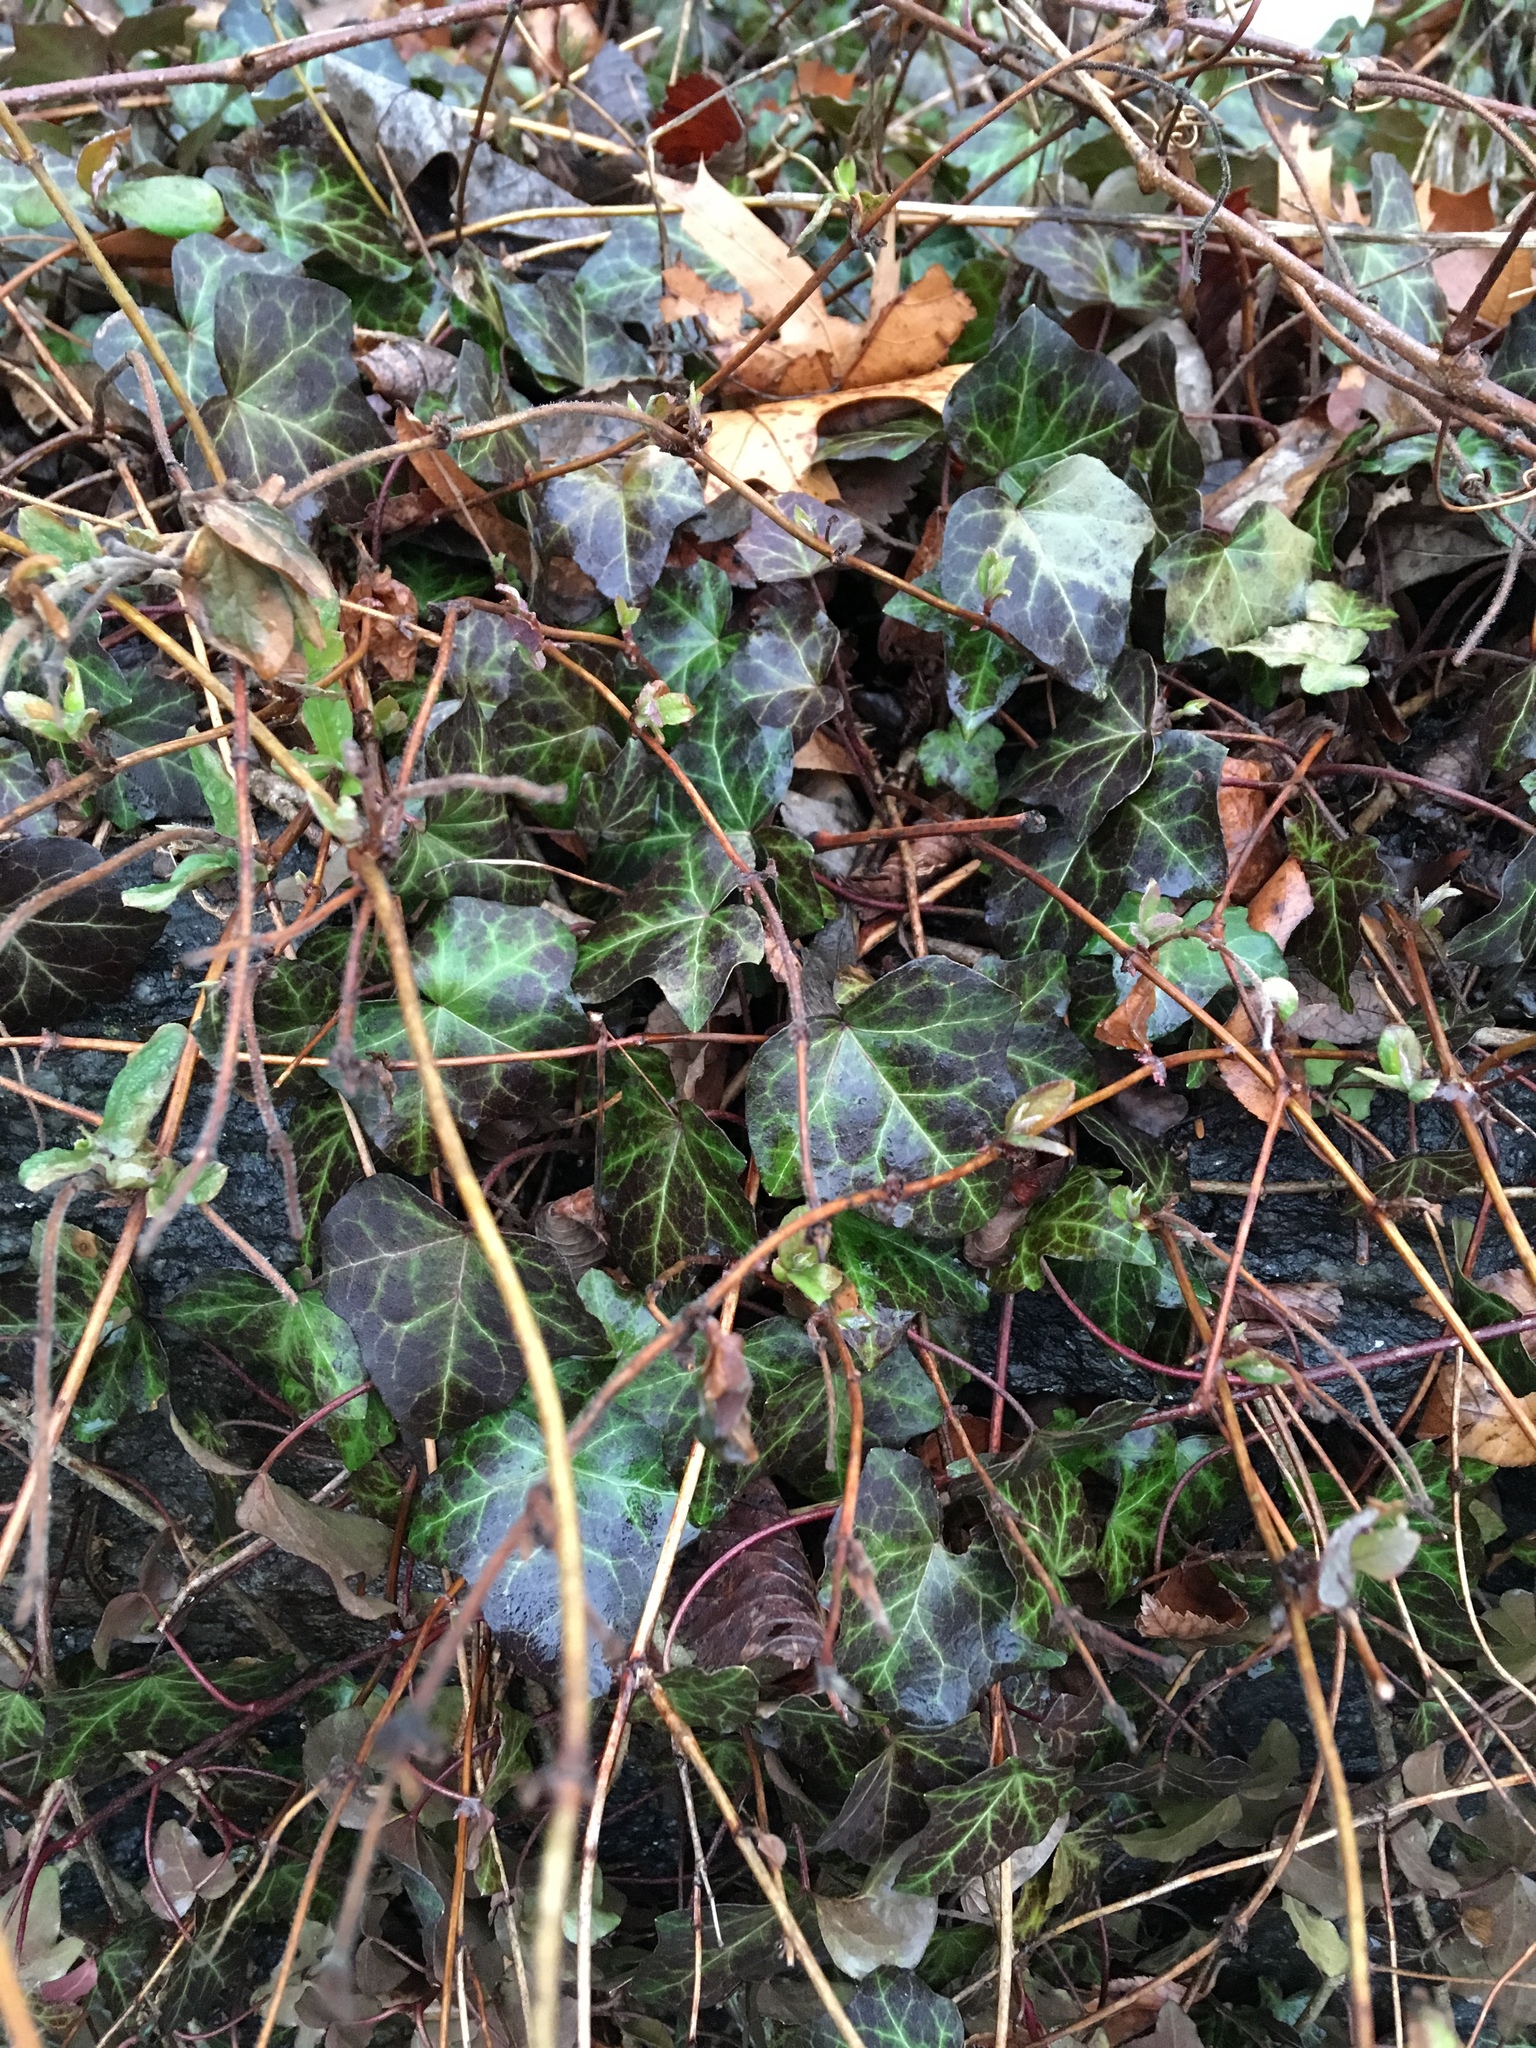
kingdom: Plantae
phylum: Tracheophyta
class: Magnoliopsida
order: Apiales
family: Araliaceae
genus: Hedera
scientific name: Hedera helix
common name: Ivy
